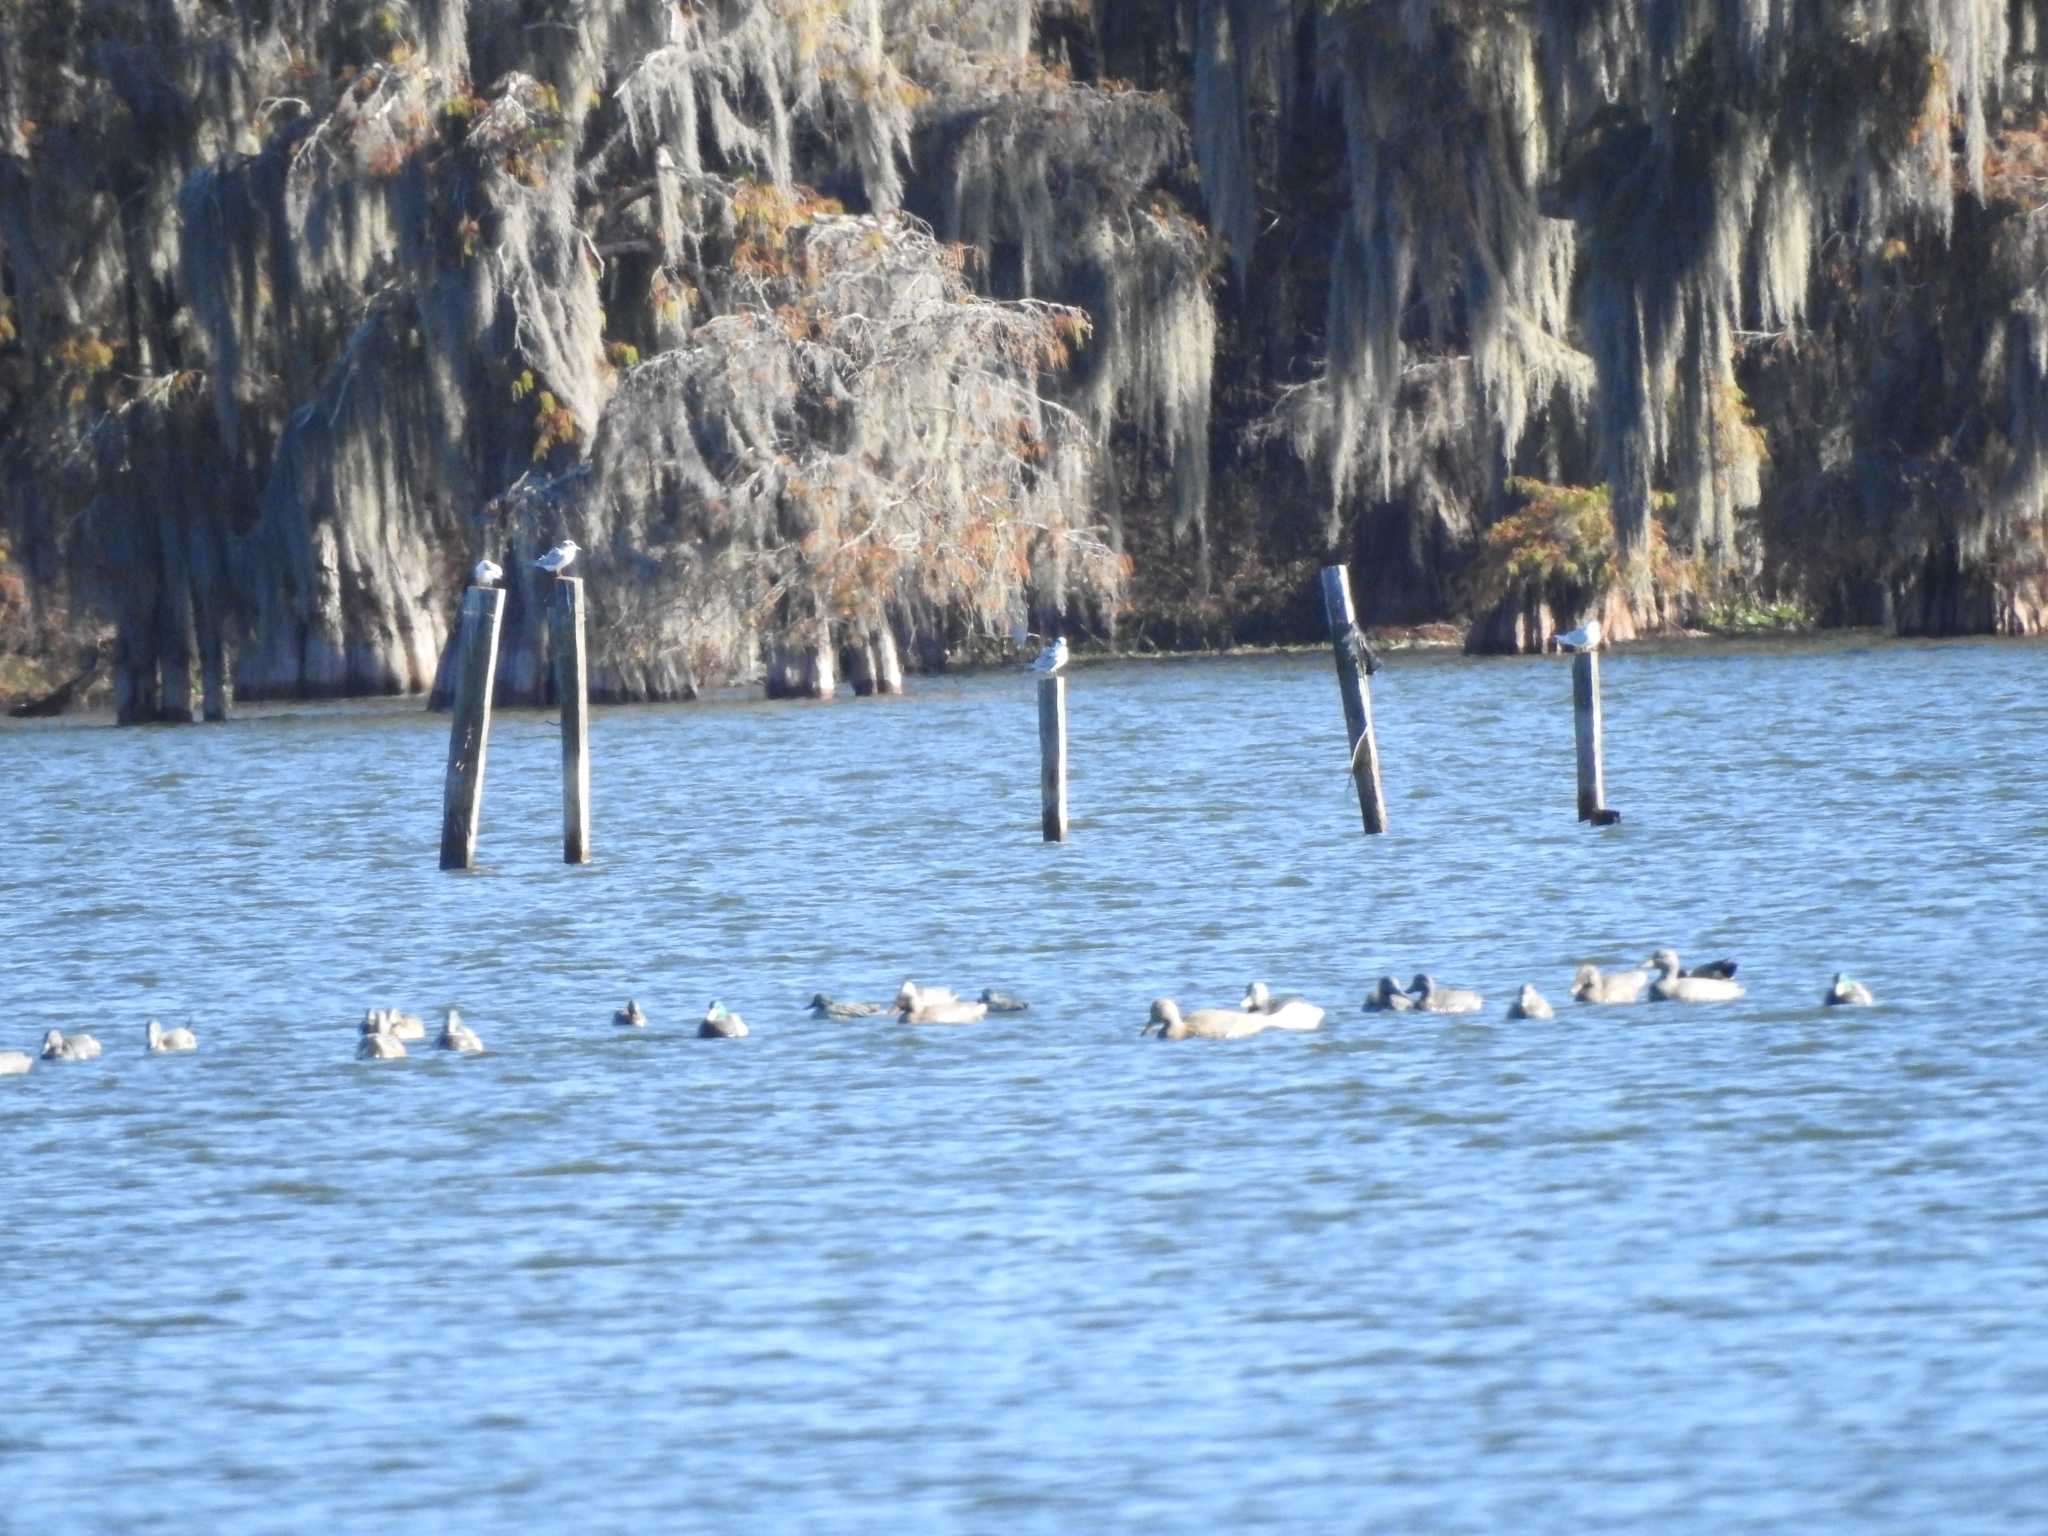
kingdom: Animalia
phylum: Chordata
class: Aves
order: Charadriiformes
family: Laridae
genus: Sterna
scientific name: Sterna forsteri
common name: Forster's tern
